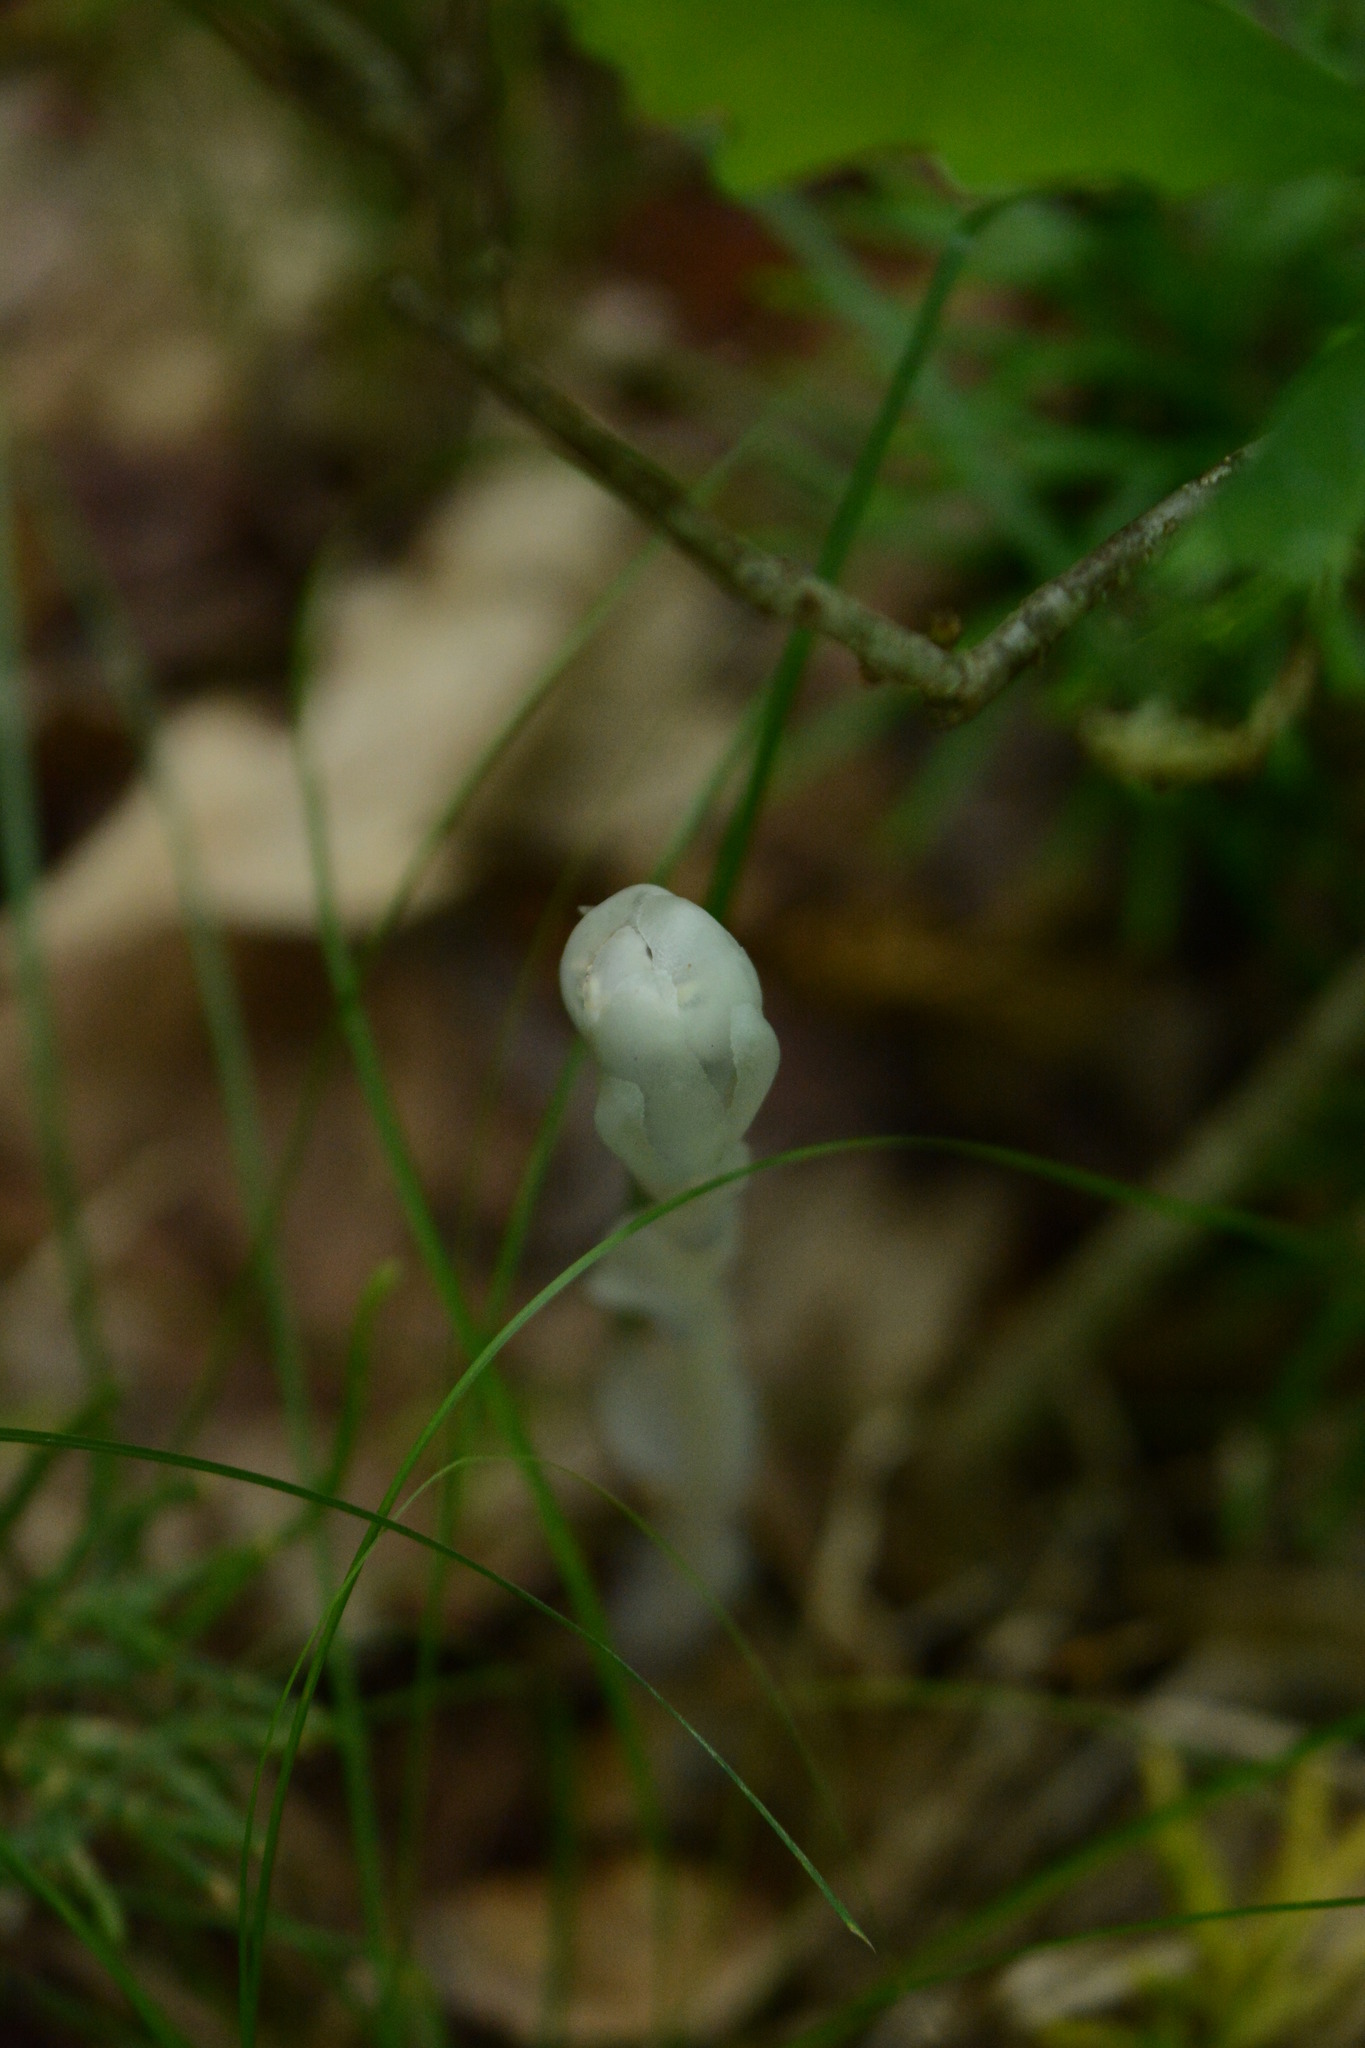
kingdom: Plantae
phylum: Tracheophyta
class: Magnoliopsida
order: Ericales
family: Ericaceae
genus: Monotropa
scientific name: Monotropa uniflora
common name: Convulsion root
